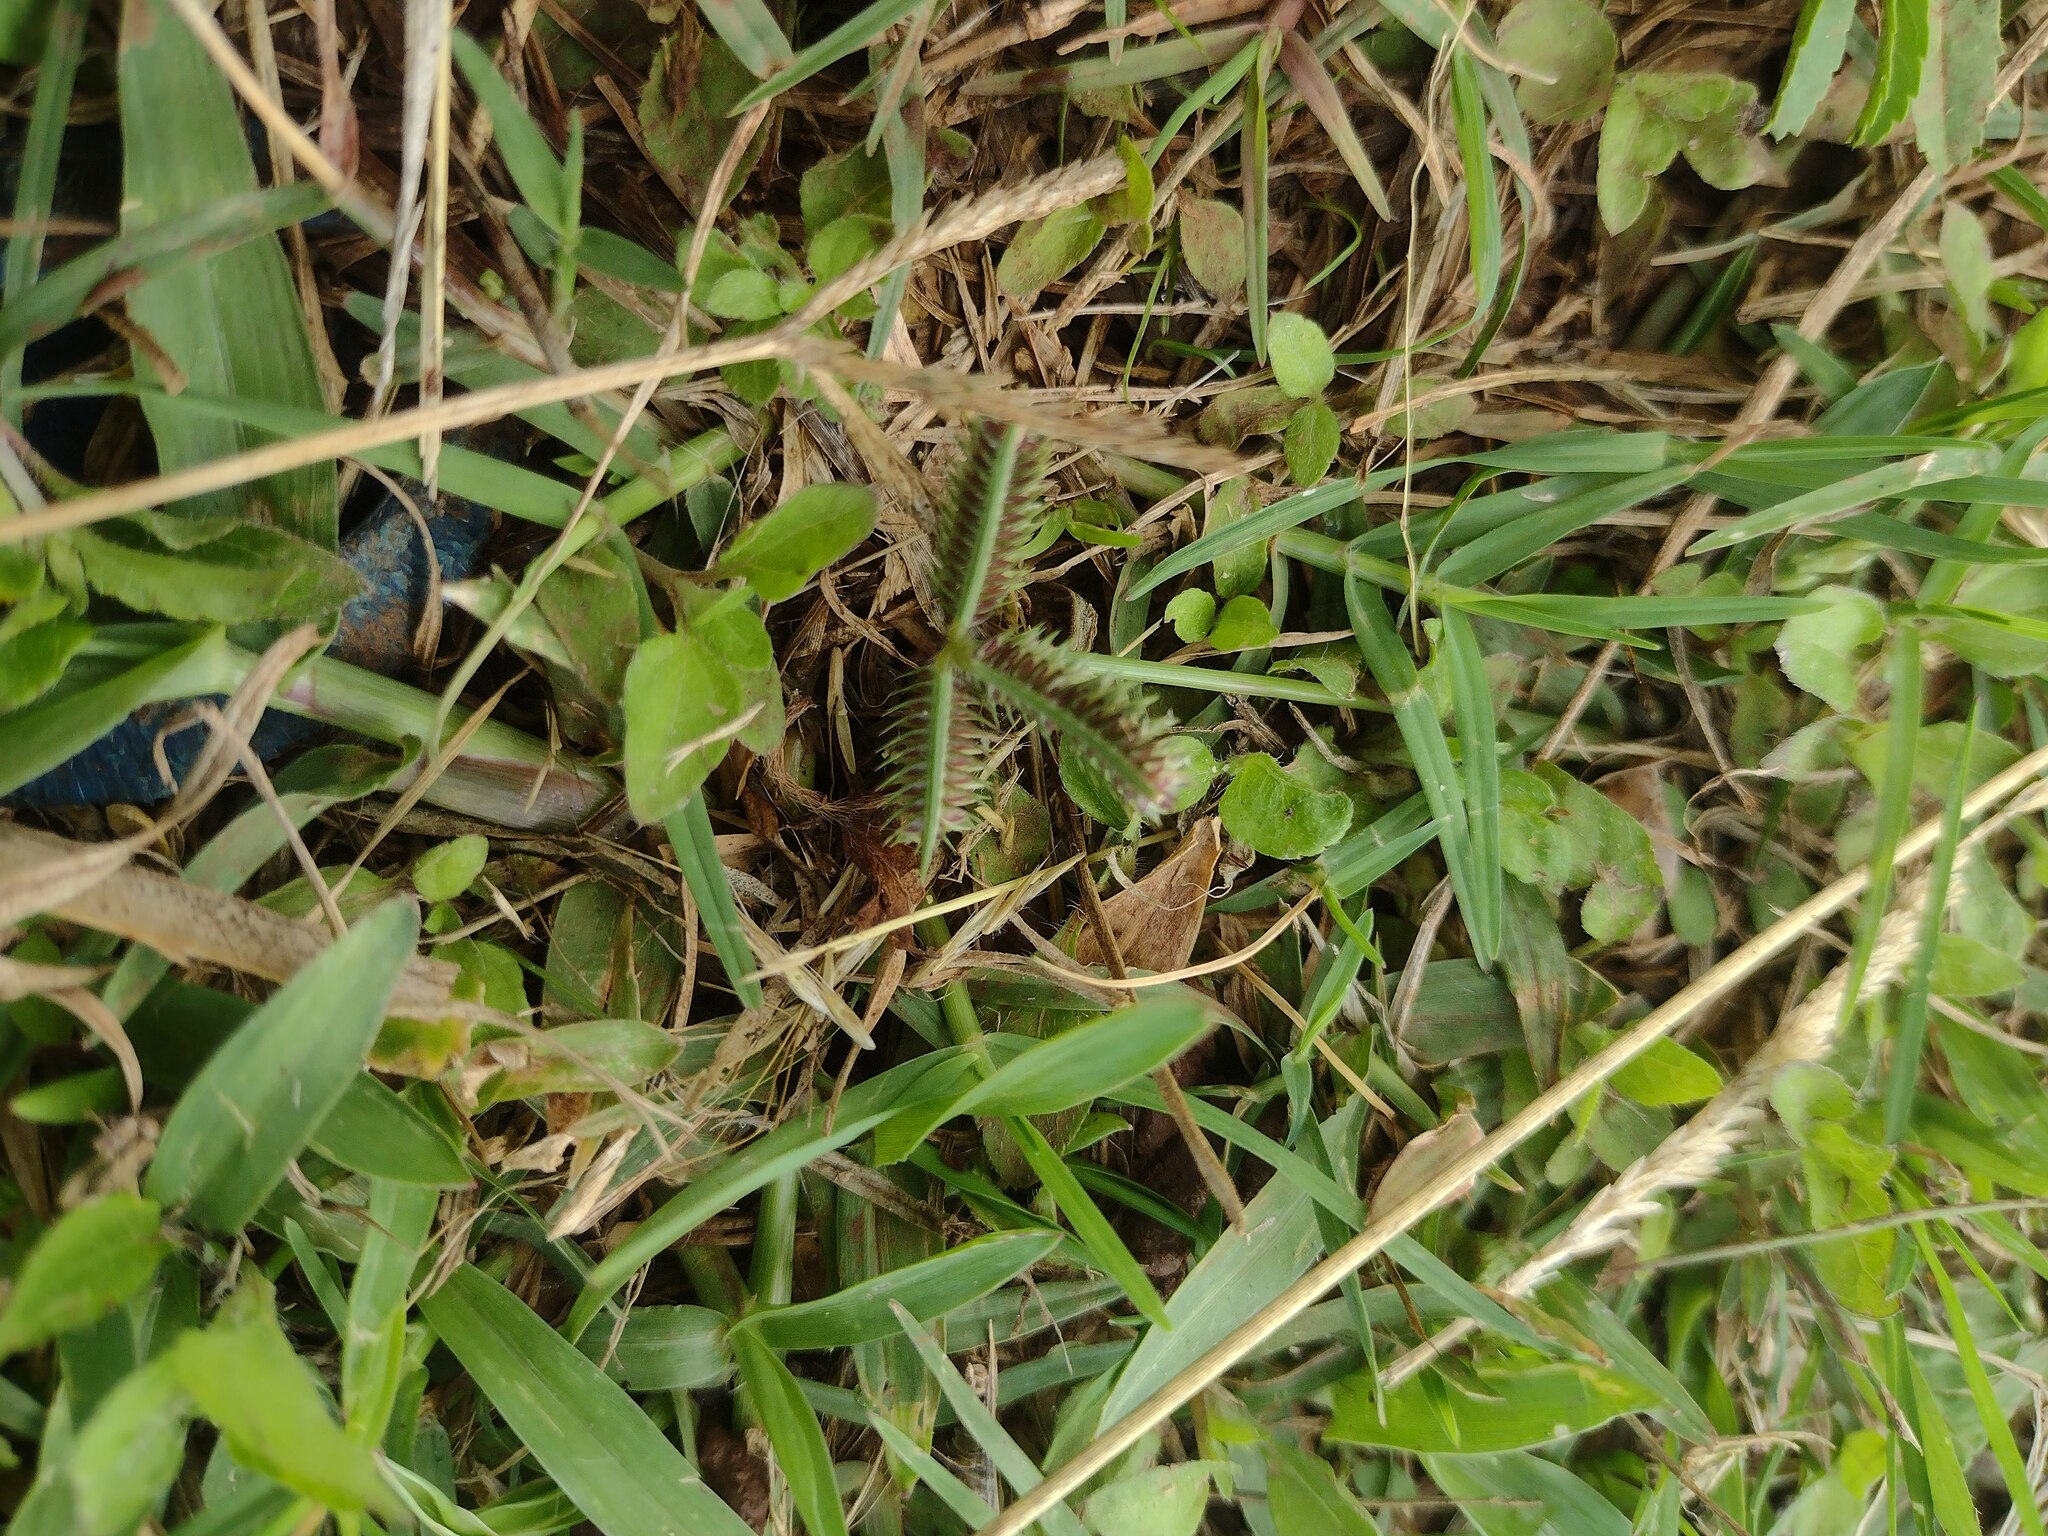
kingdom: Plantae
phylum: Tracheophyta
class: Liliopsida
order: Poales
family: Poaceae
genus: Dactyloctenium
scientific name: Dactyloctenium aegyptium
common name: Egyptian grass
